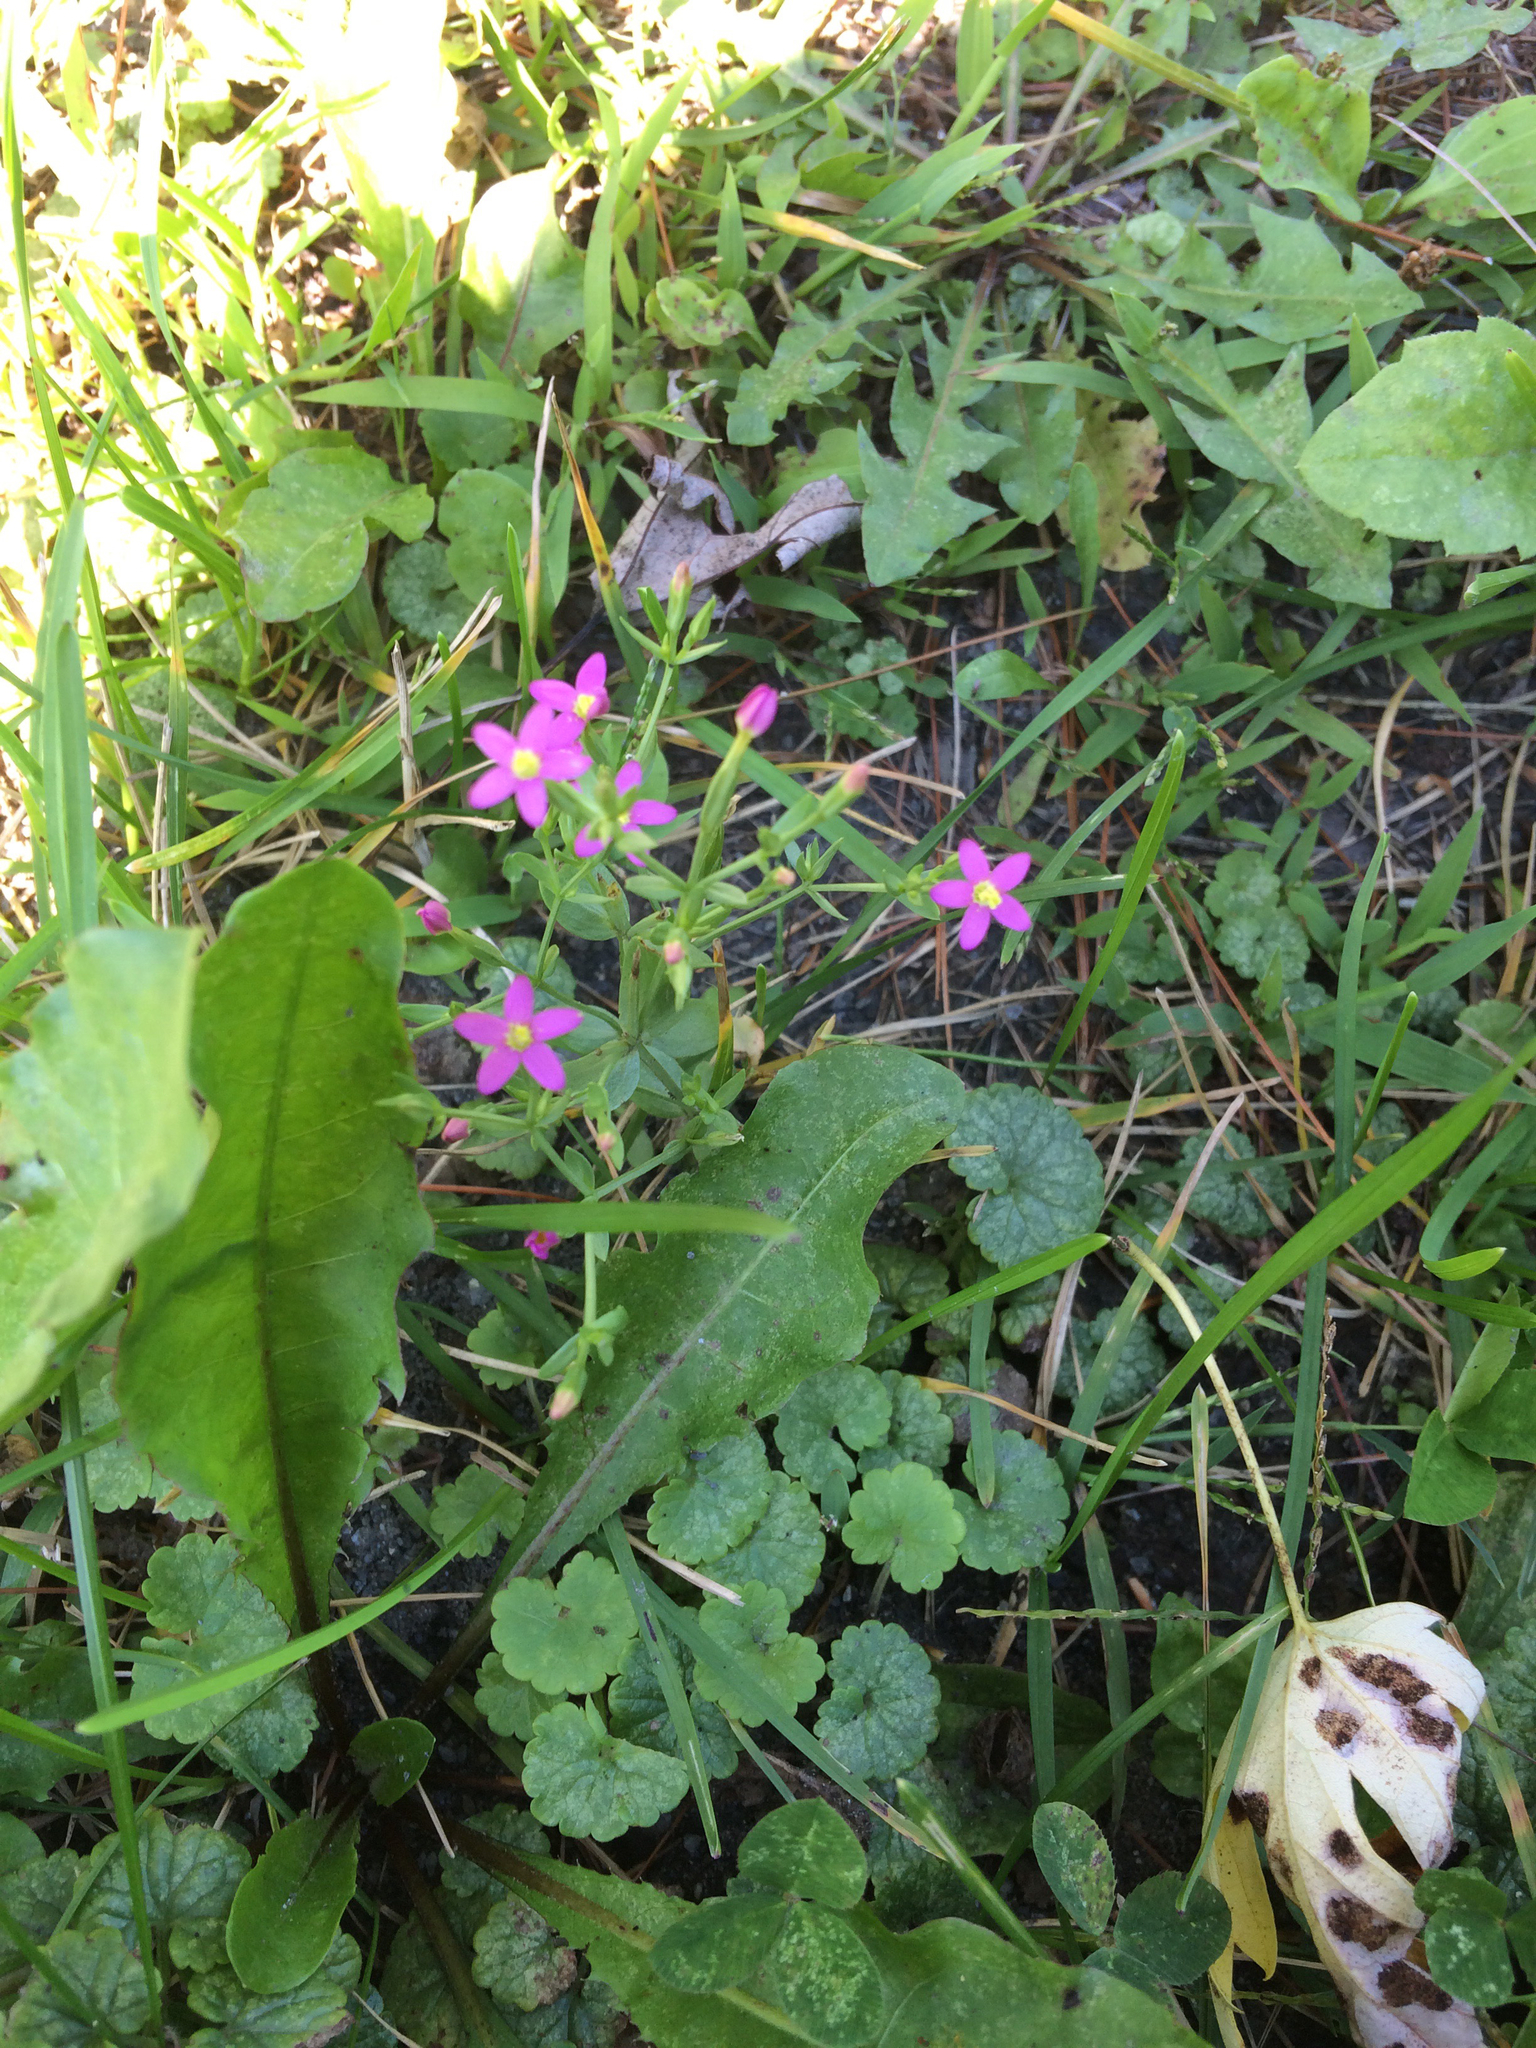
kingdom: Plantae
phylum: Tracheophyta
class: Magnoliopsida
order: Gentianales
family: Gentianaceae
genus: Centaurium
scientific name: Centaurium pulchellum
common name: Lesser centaury
